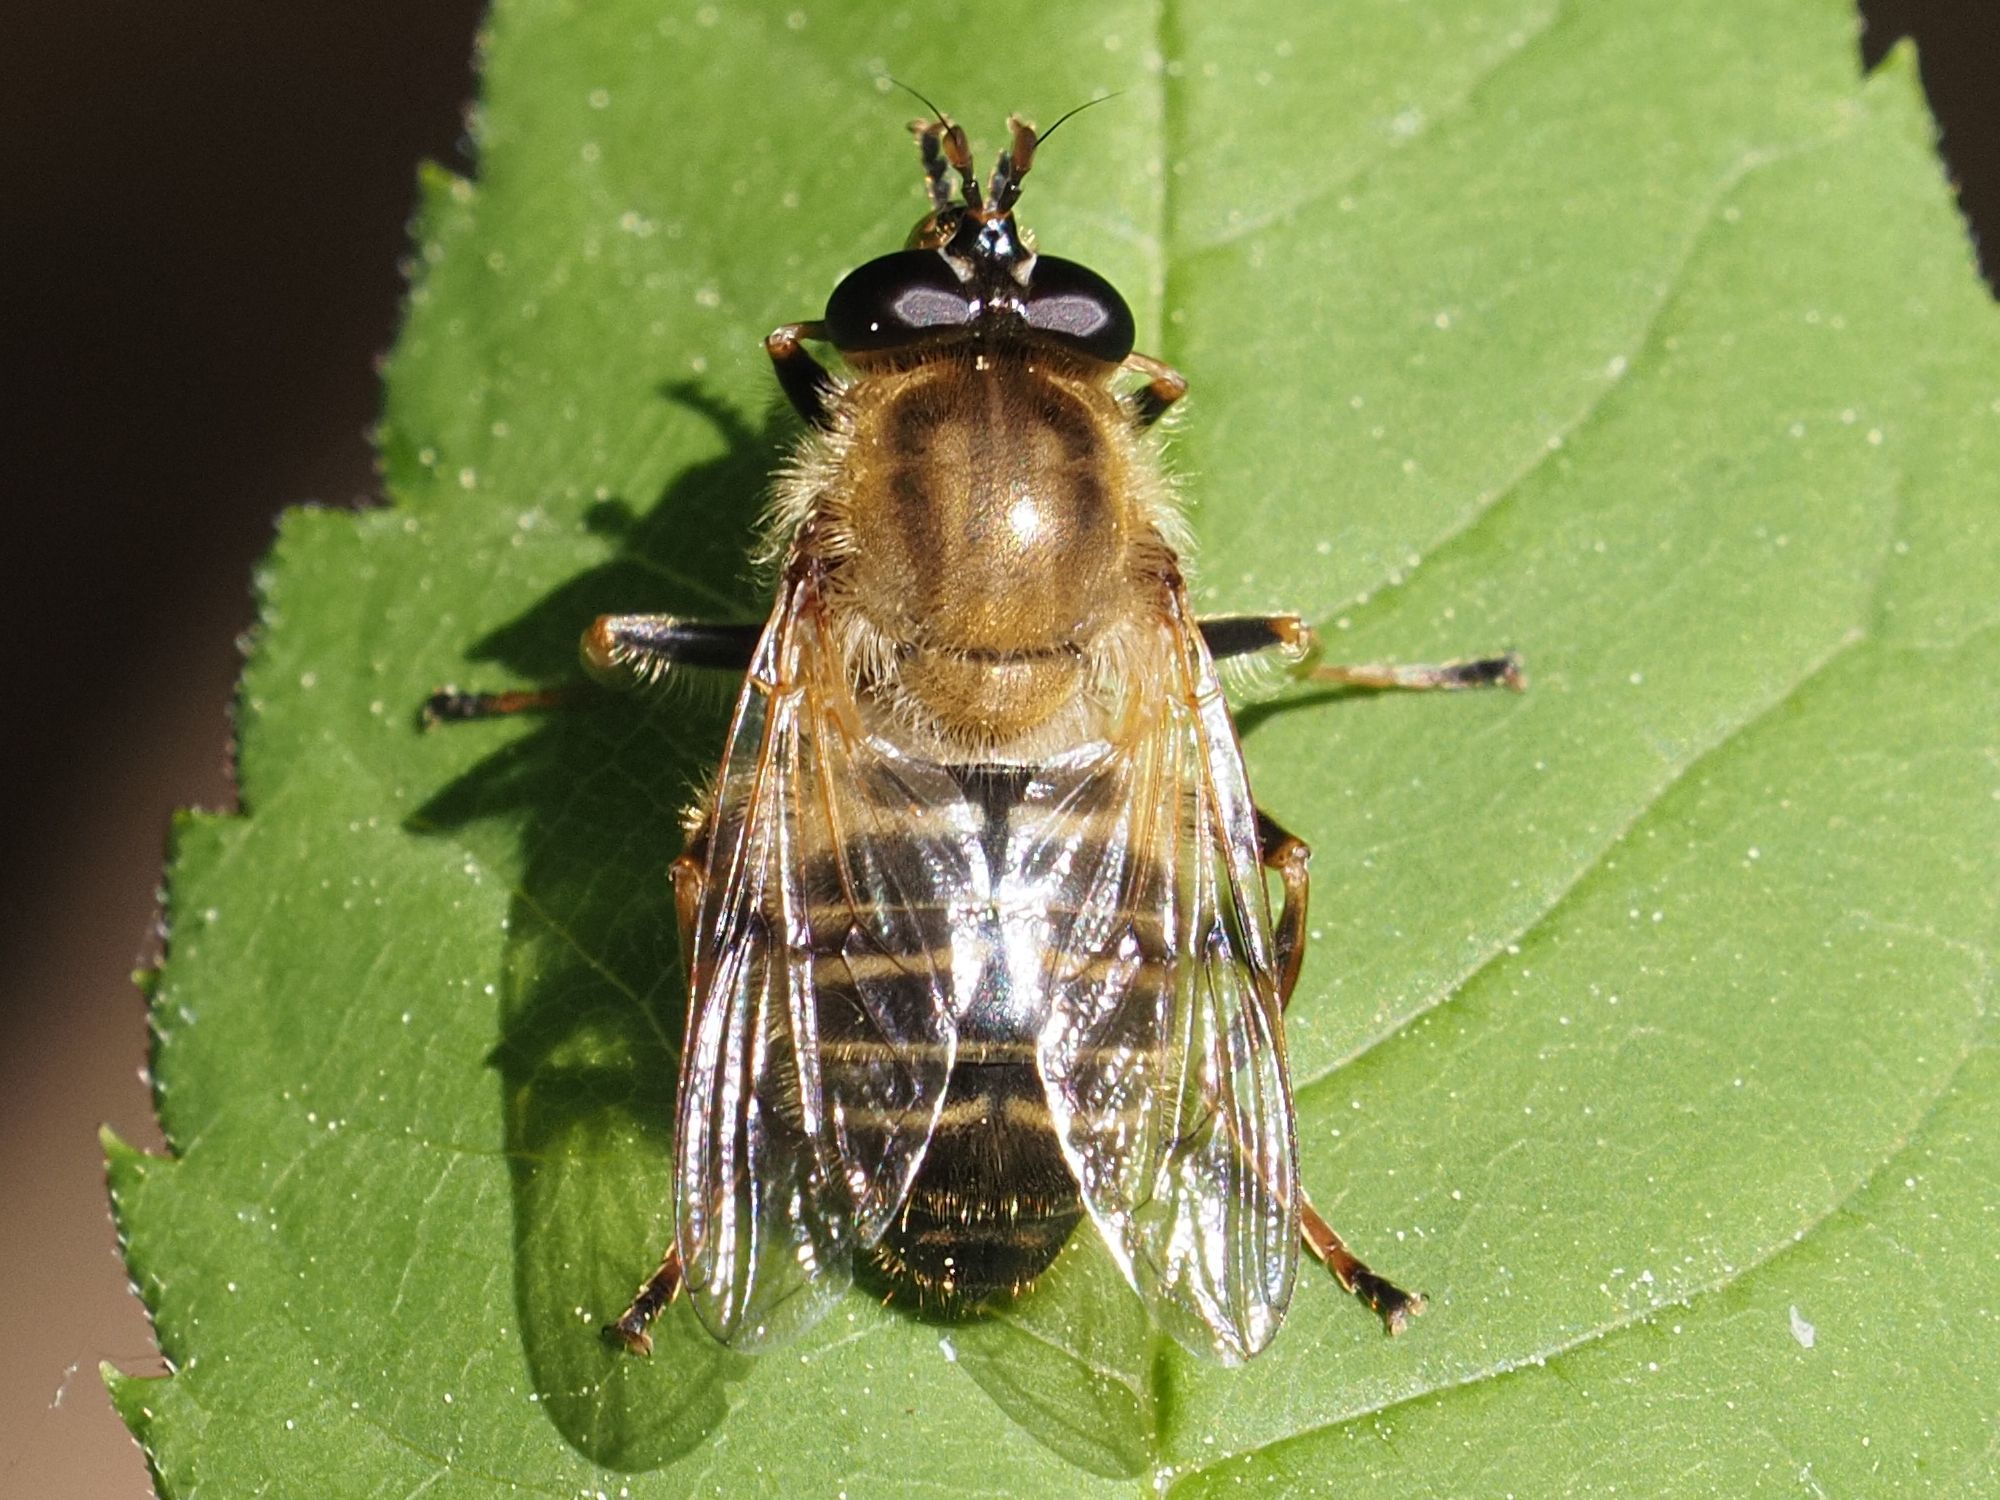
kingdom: Animalia
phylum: Arthropoda
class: Insecta
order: Diptera
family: Syrphidae
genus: Criorhina
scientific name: Criorhina asilica
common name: Pale-banded bear hoverfly
